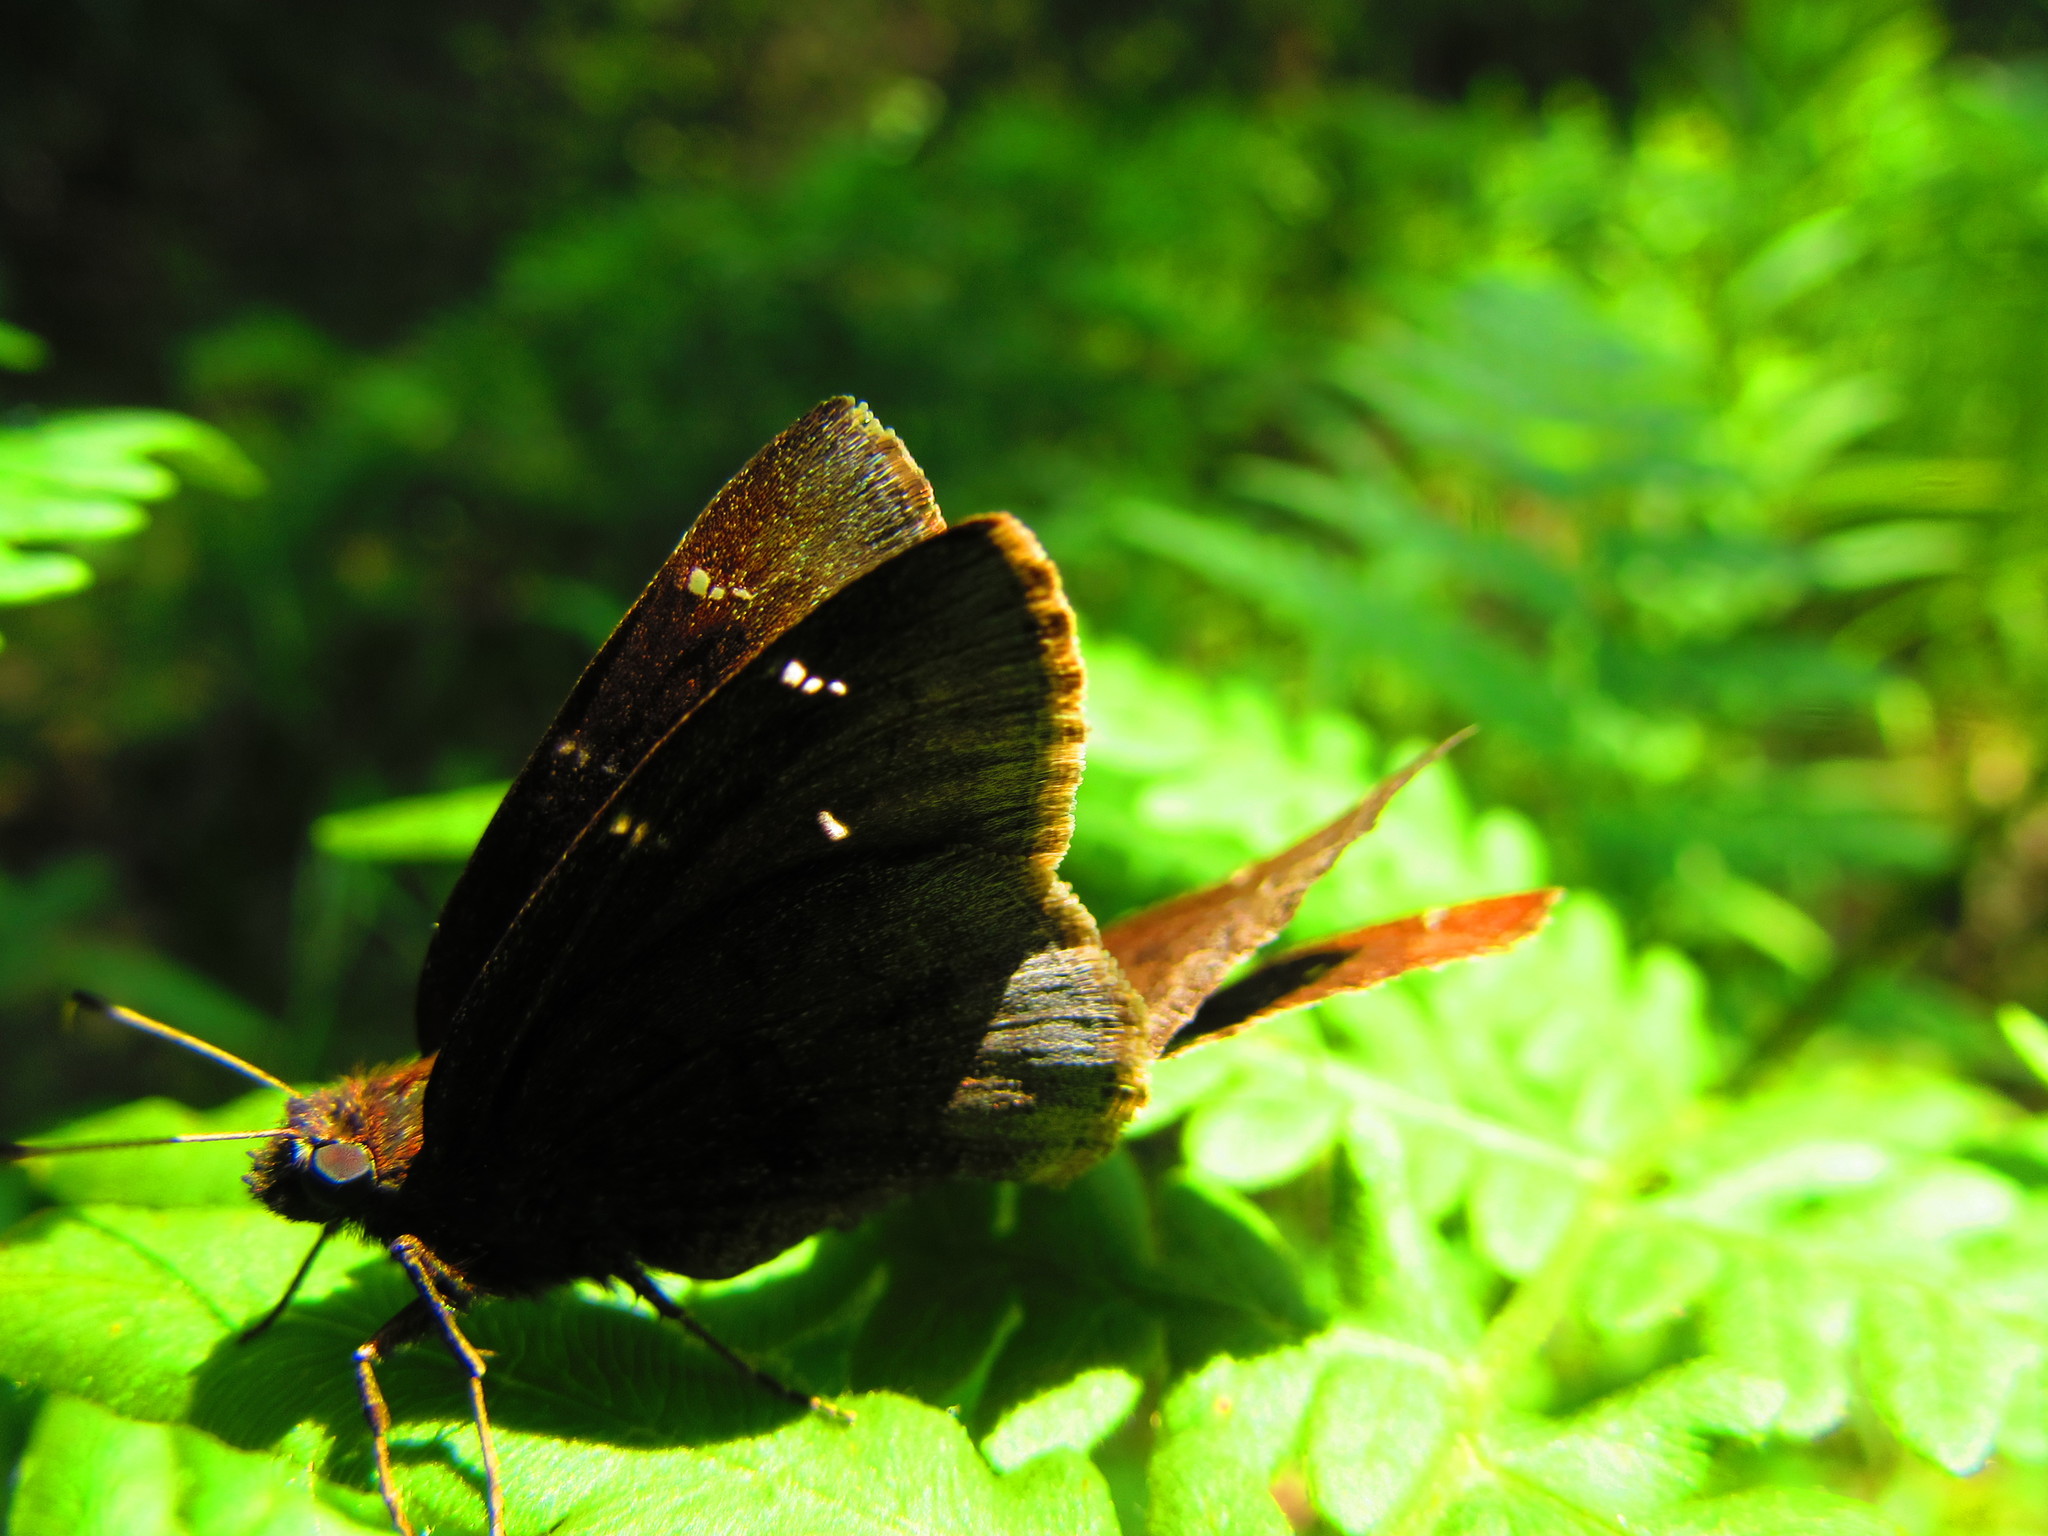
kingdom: Animalia
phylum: Arthropoda
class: Insecta
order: Lepidoptera
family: Hesperiidae
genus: Thorybes
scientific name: Thorybes pylades
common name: Northern cloudywing
